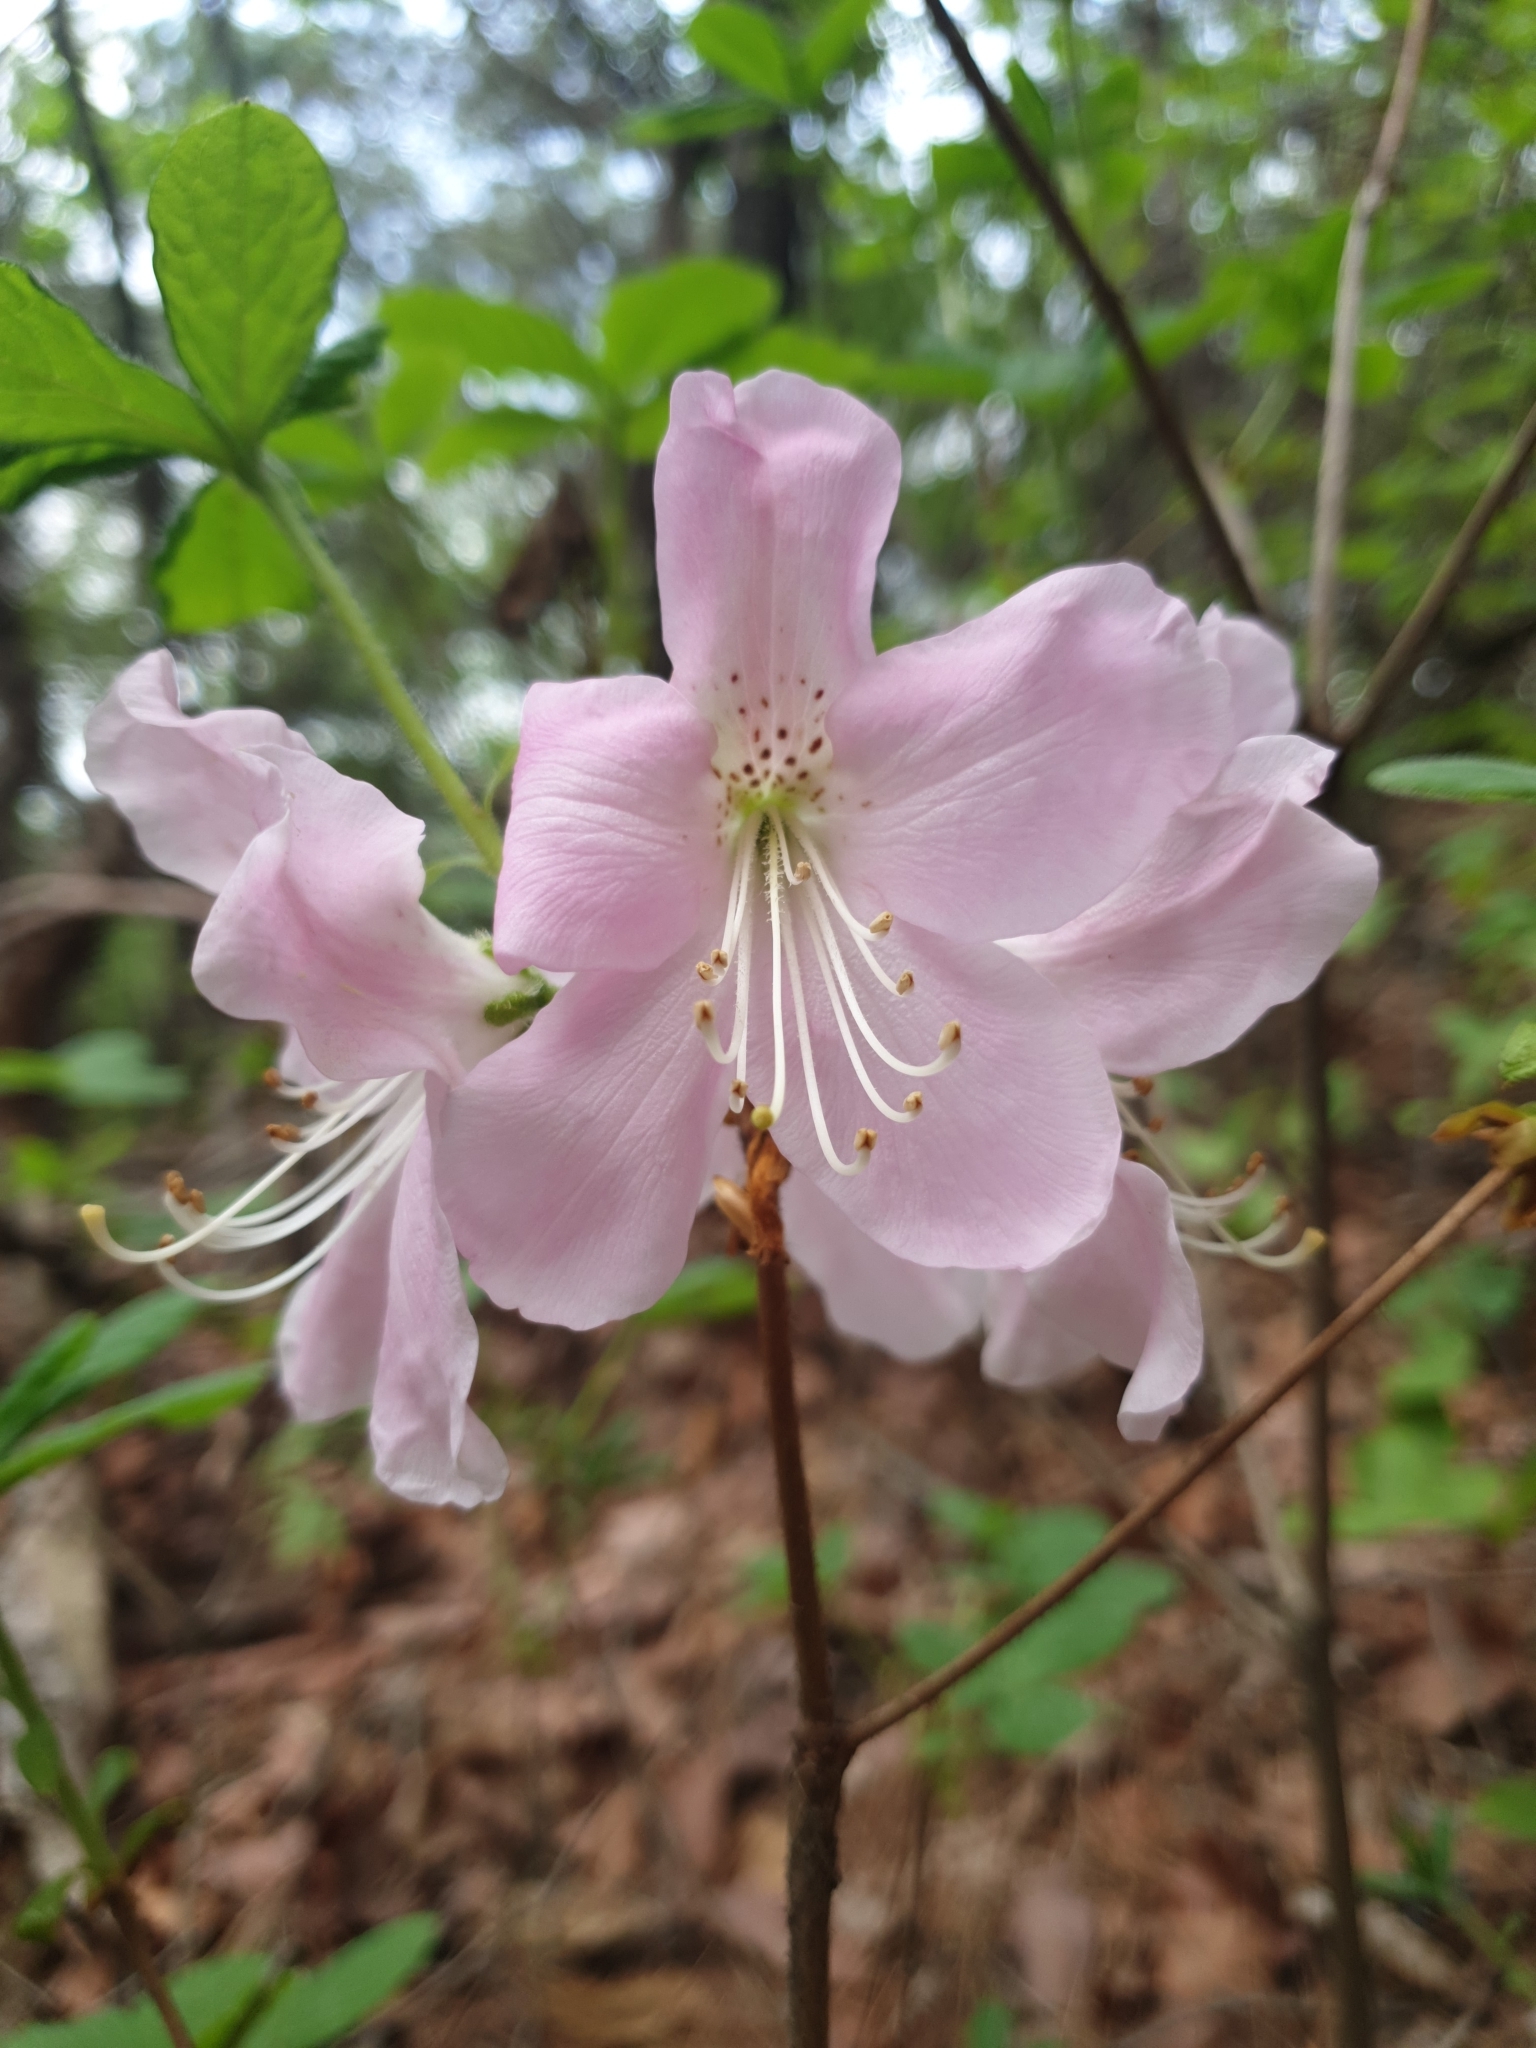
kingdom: Plantae
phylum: Tracheophyta
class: Magnoliopsida
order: Ericales
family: Ericaceae
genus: Rhododendron
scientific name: Rhododendron schlippenbachii
